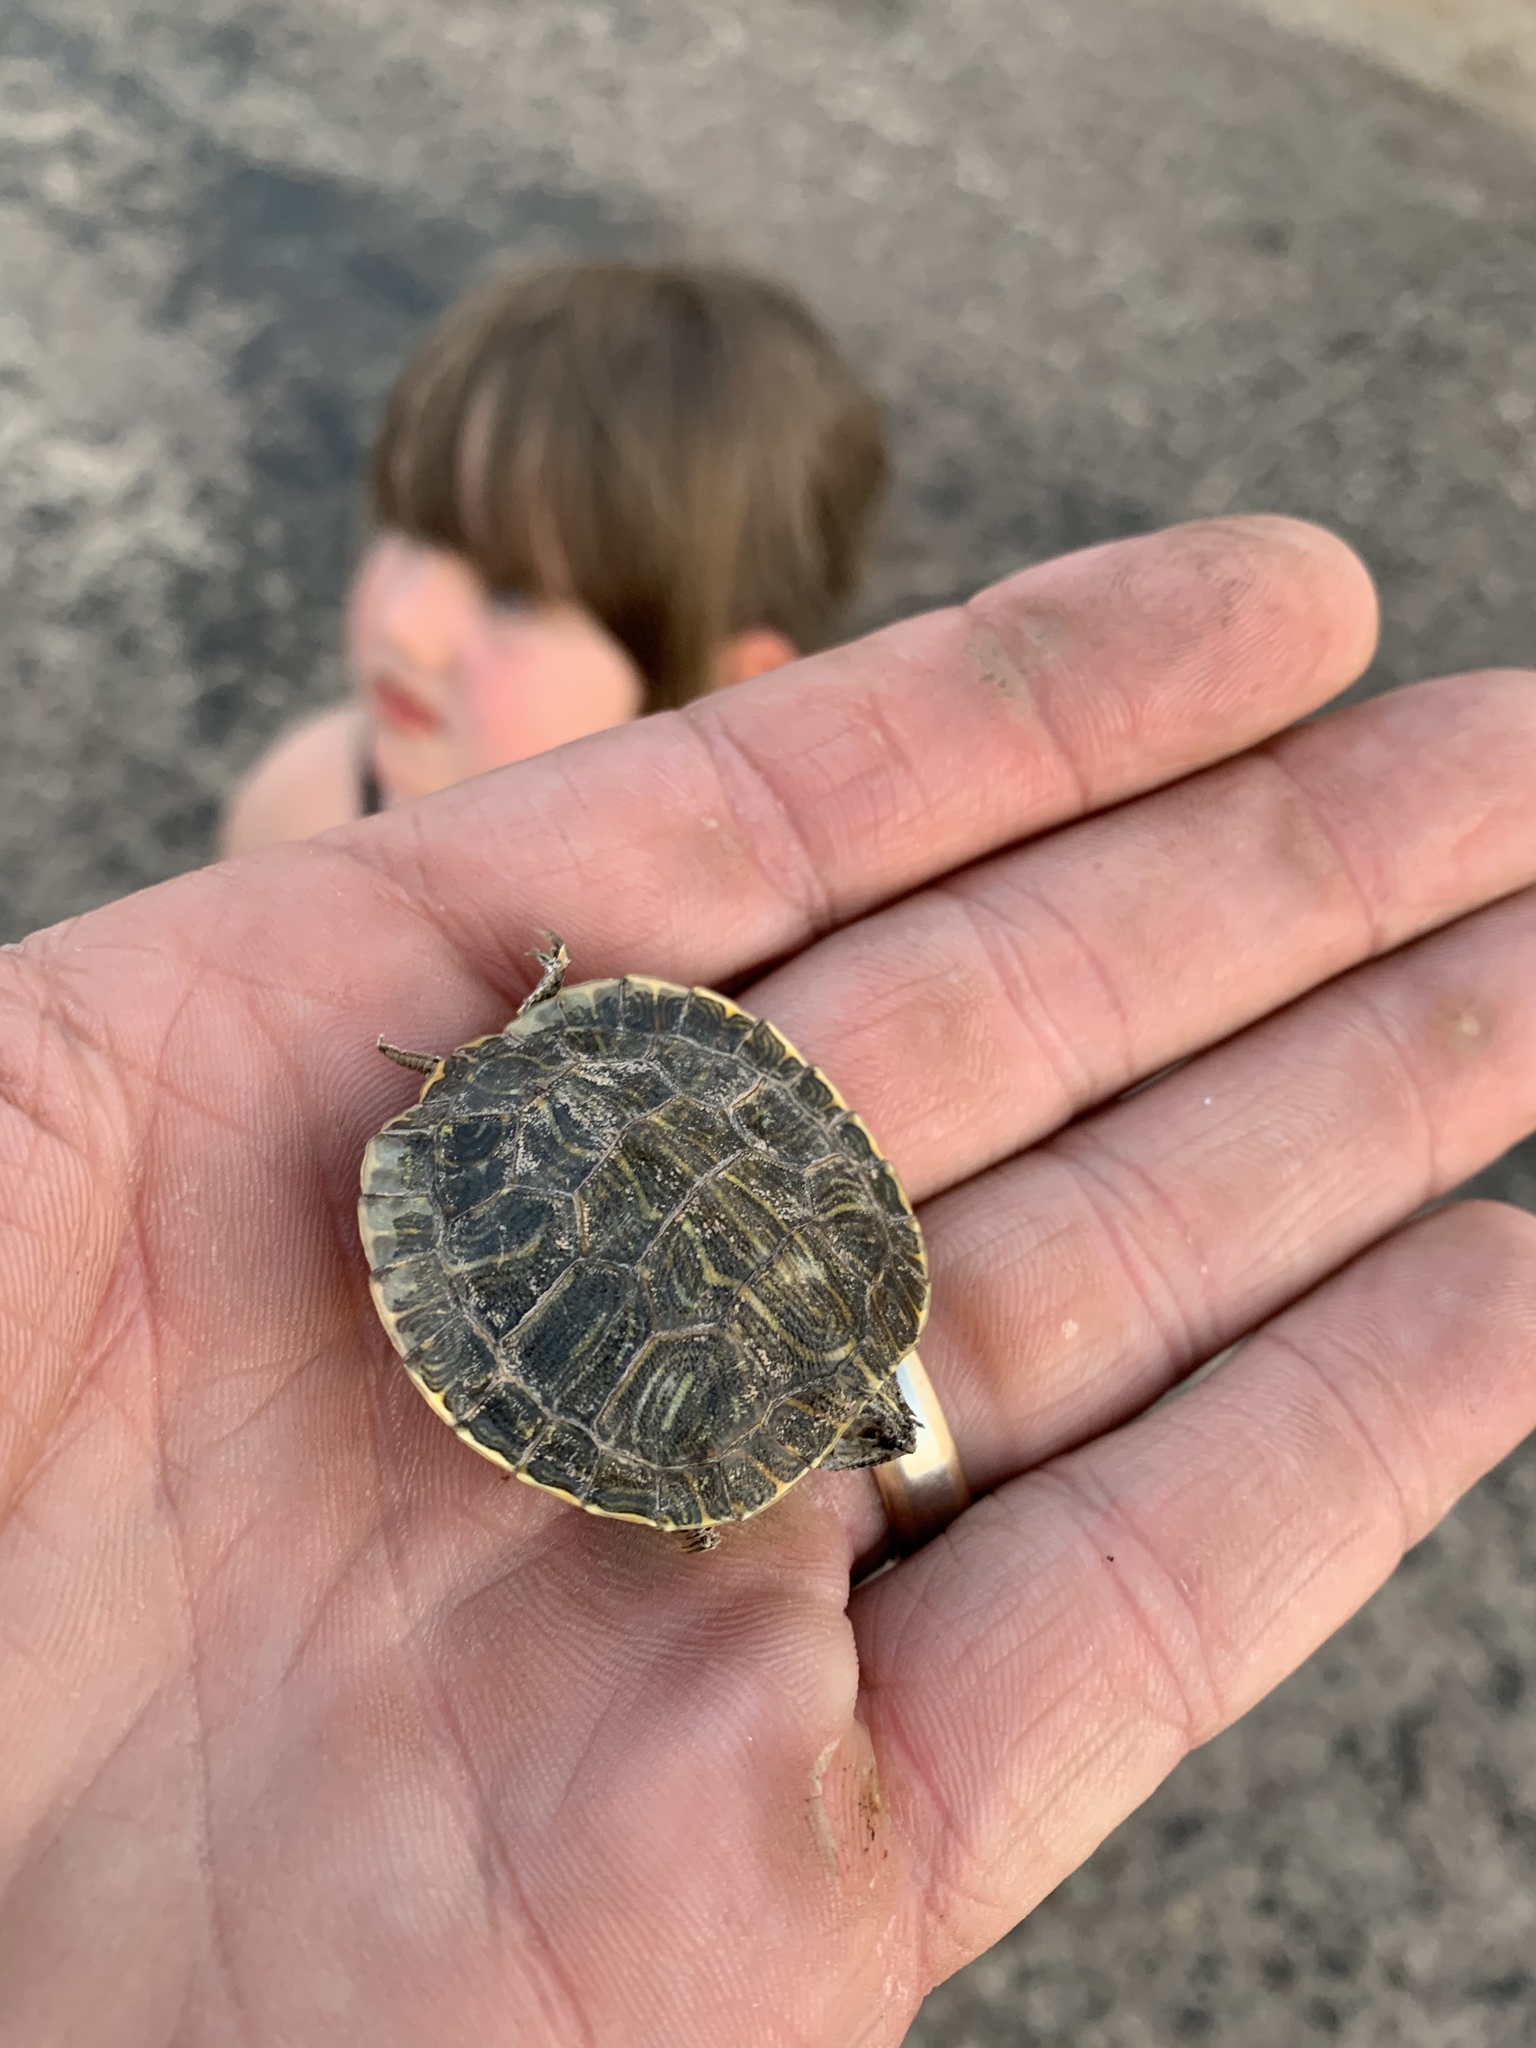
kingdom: Animalia
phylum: Chordata
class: Testudines
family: Emydidae
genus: Trachemys
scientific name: Trachemys scripta
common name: Slider
